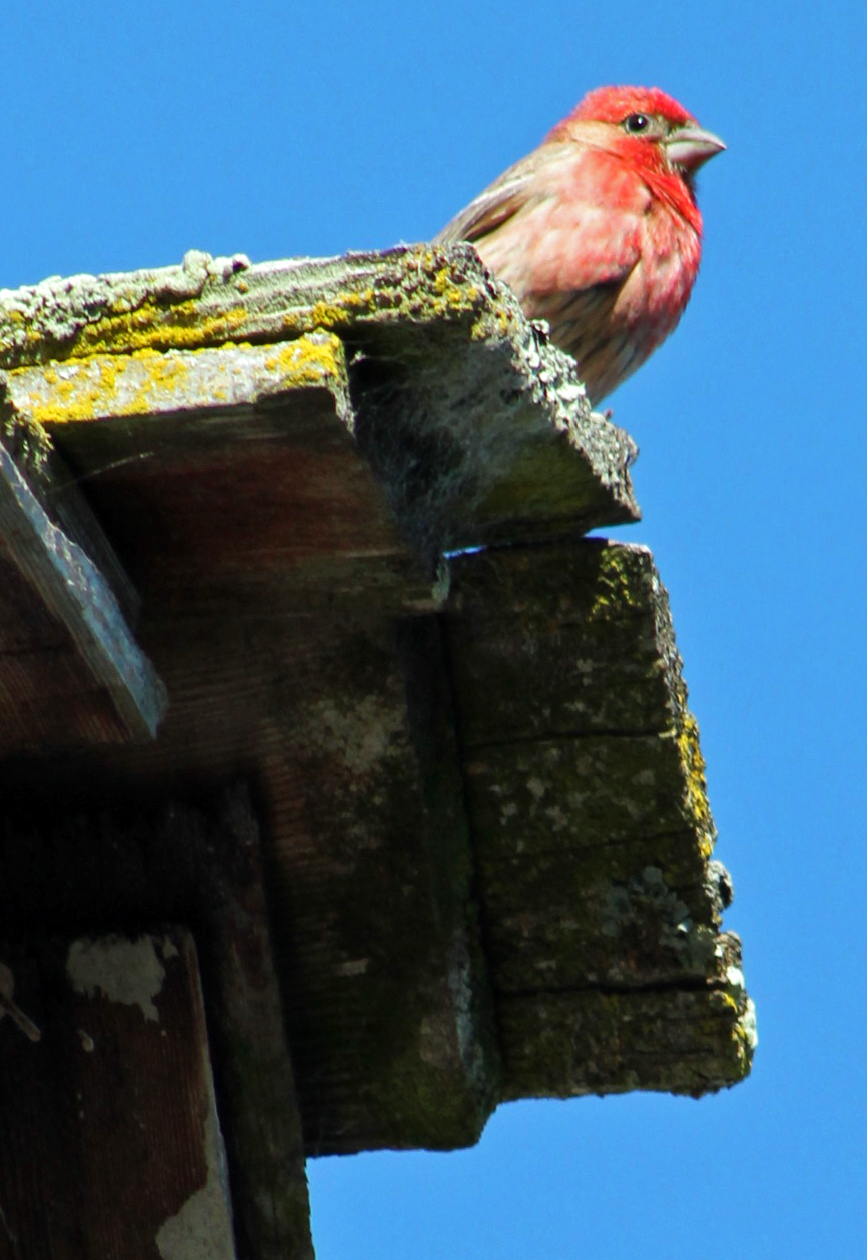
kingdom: Animalia
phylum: Chordata
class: Aves
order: Passeriformes
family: Fringillidae
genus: Haemorhous
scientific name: Haemorhous mexicanus
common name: House finch
